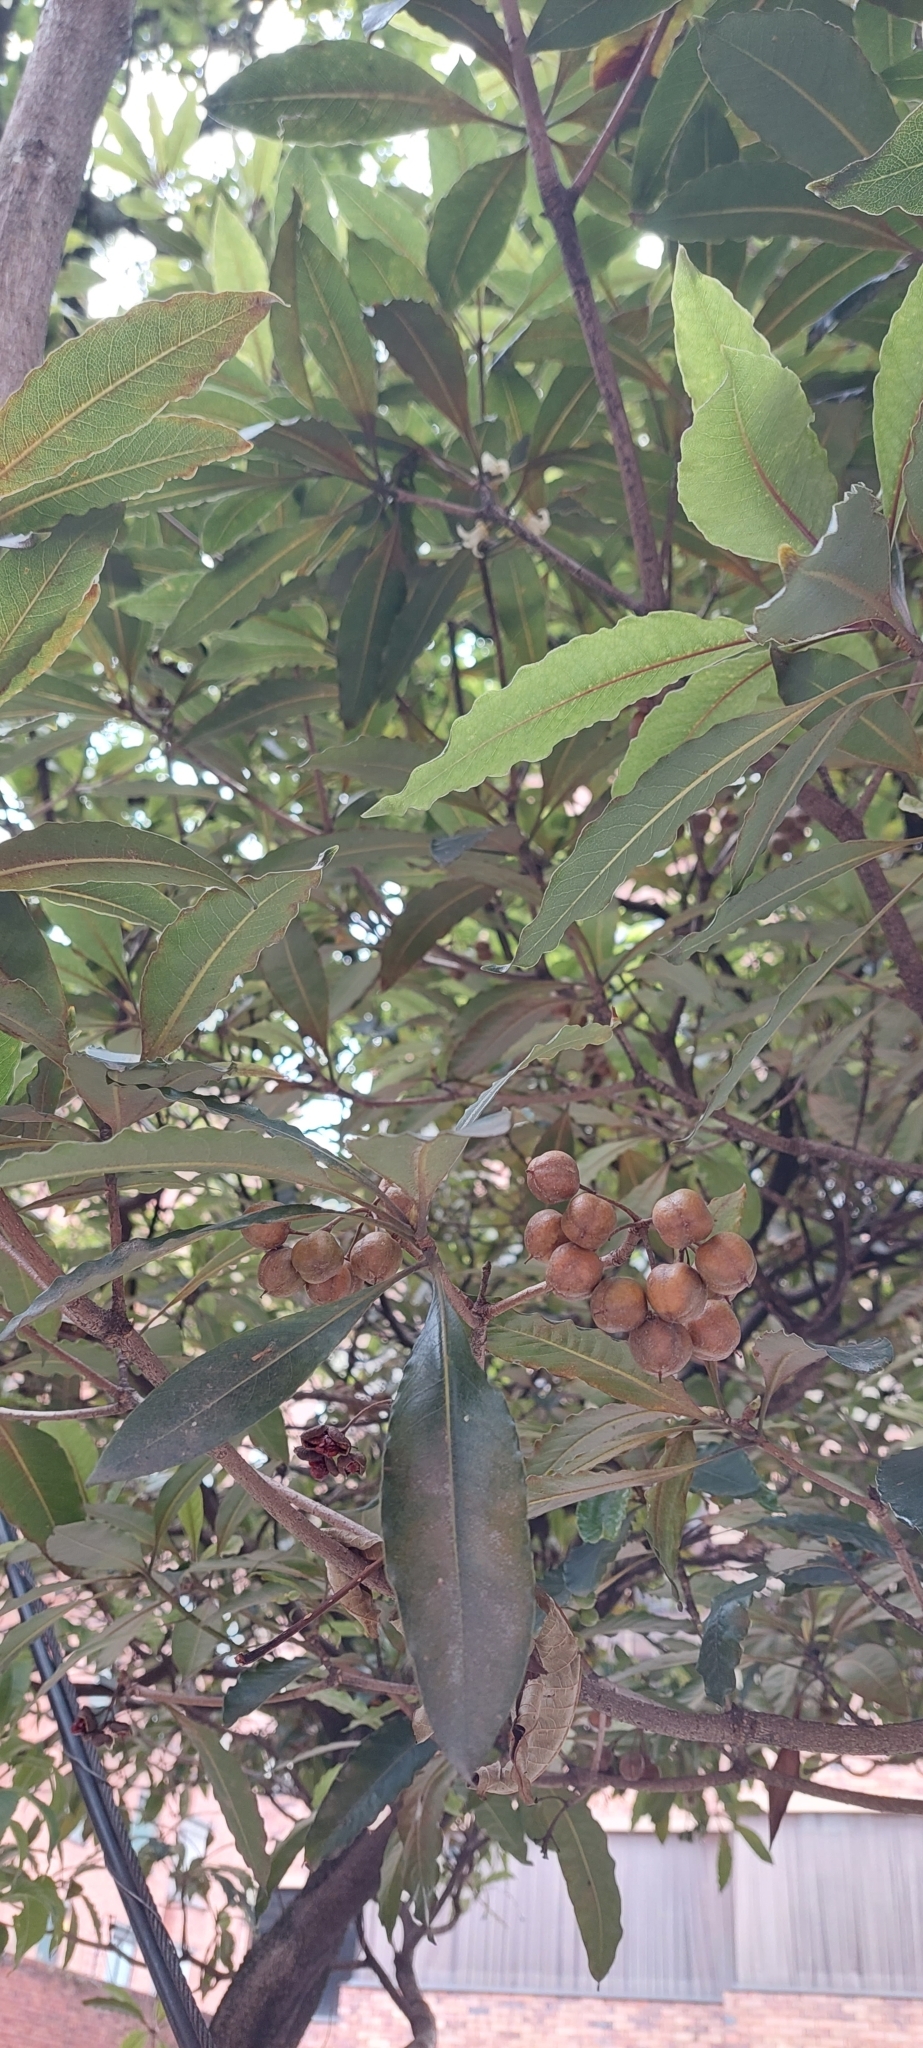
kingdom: Plantae
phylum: Tracheophyta
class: Magnoliopsida
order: Apiales
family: Pittosporaceae
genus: Pittosporum
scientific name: Pittosporum undulatum
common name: Australian cheesewood
